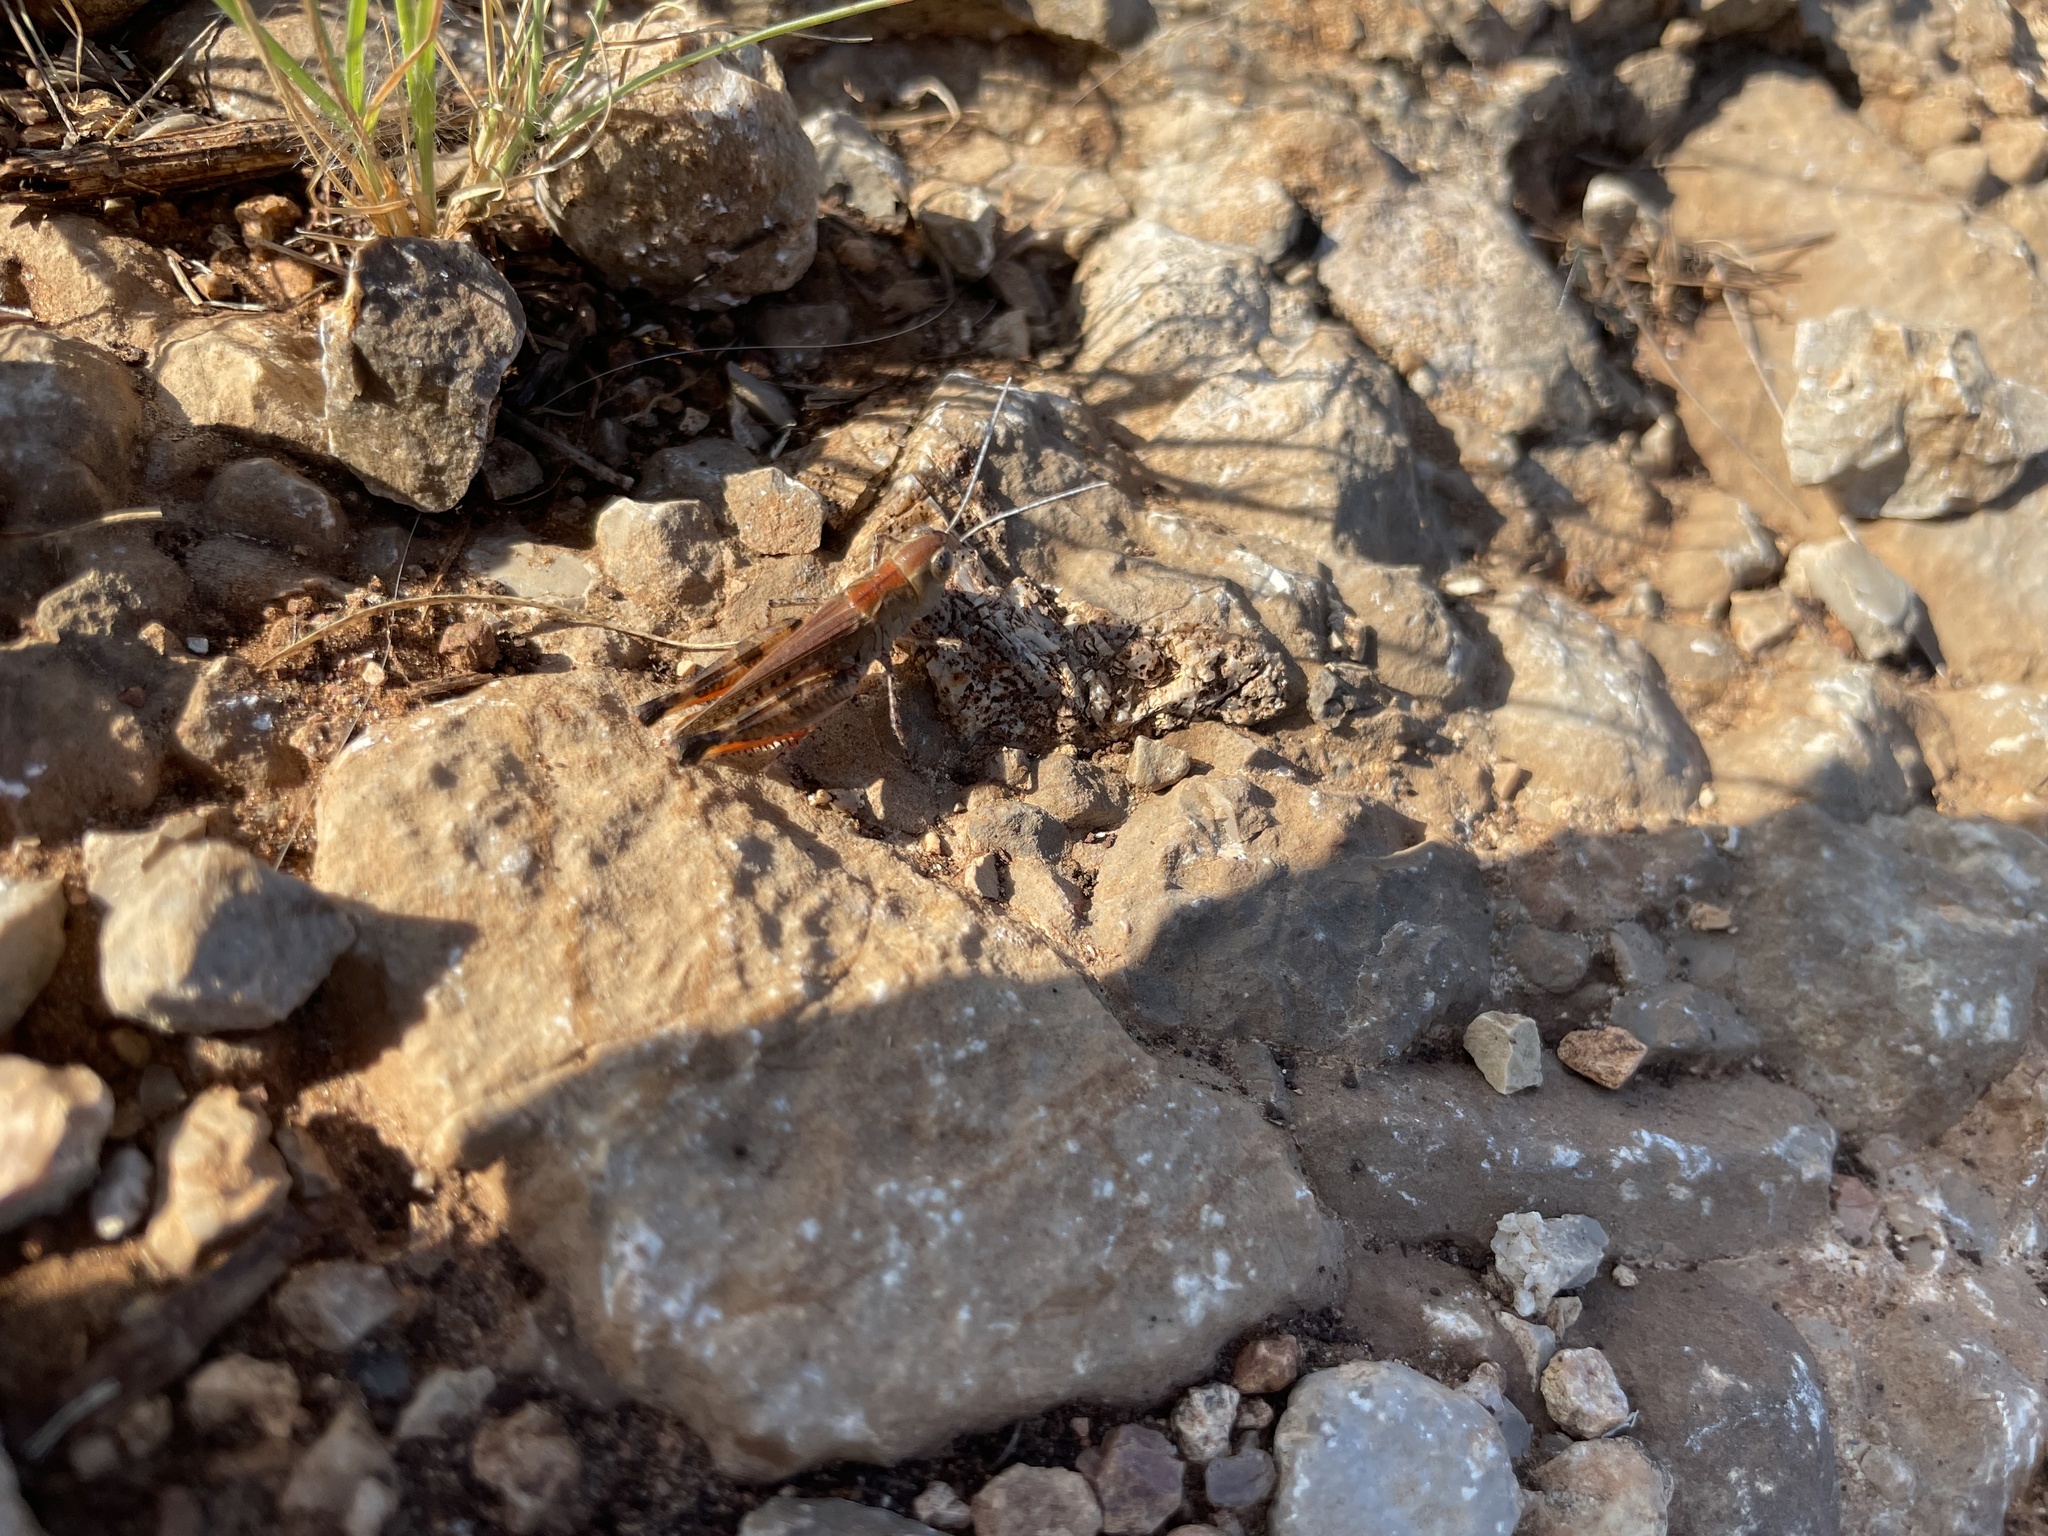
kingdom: Animalia
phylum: Arthropoda
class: Insecta
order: Orthoptera
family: Acrididae
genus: Ageneotettix
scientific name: Ageneotettix deorum
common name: White-whiskered grasshopper
